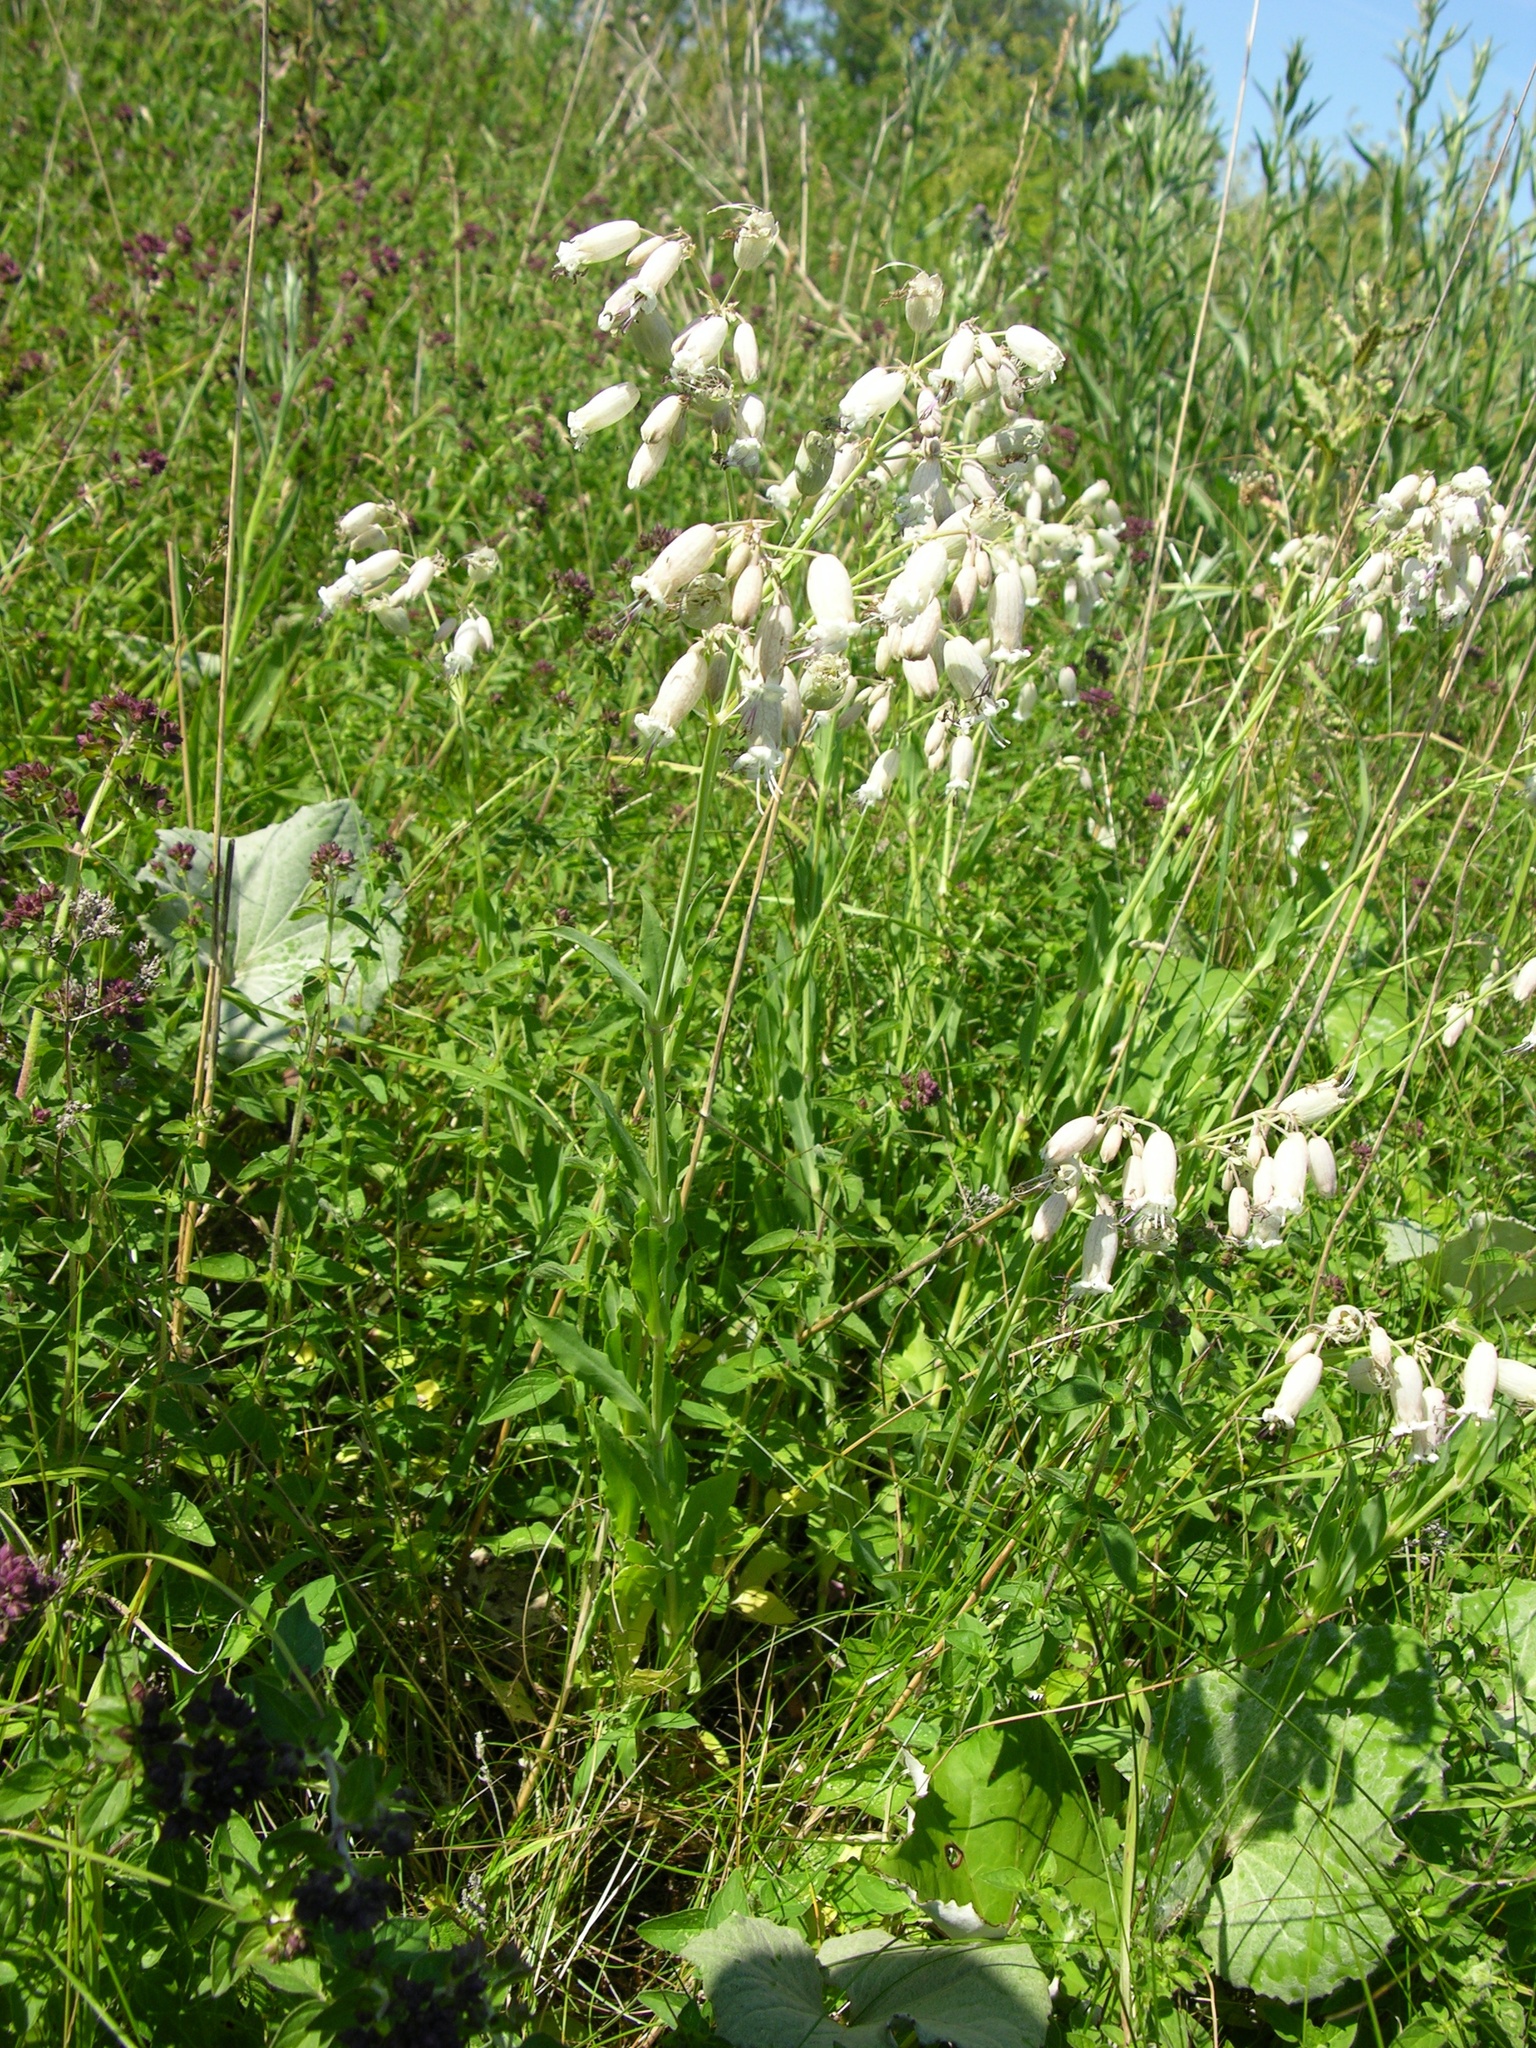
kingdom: Plantae
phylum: Tracheophyta
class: Magnoliopsida
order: Caryophyllales
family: Caryophyllaceae
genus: Silene
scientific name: Silene vulgaris
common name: Bladder campion
